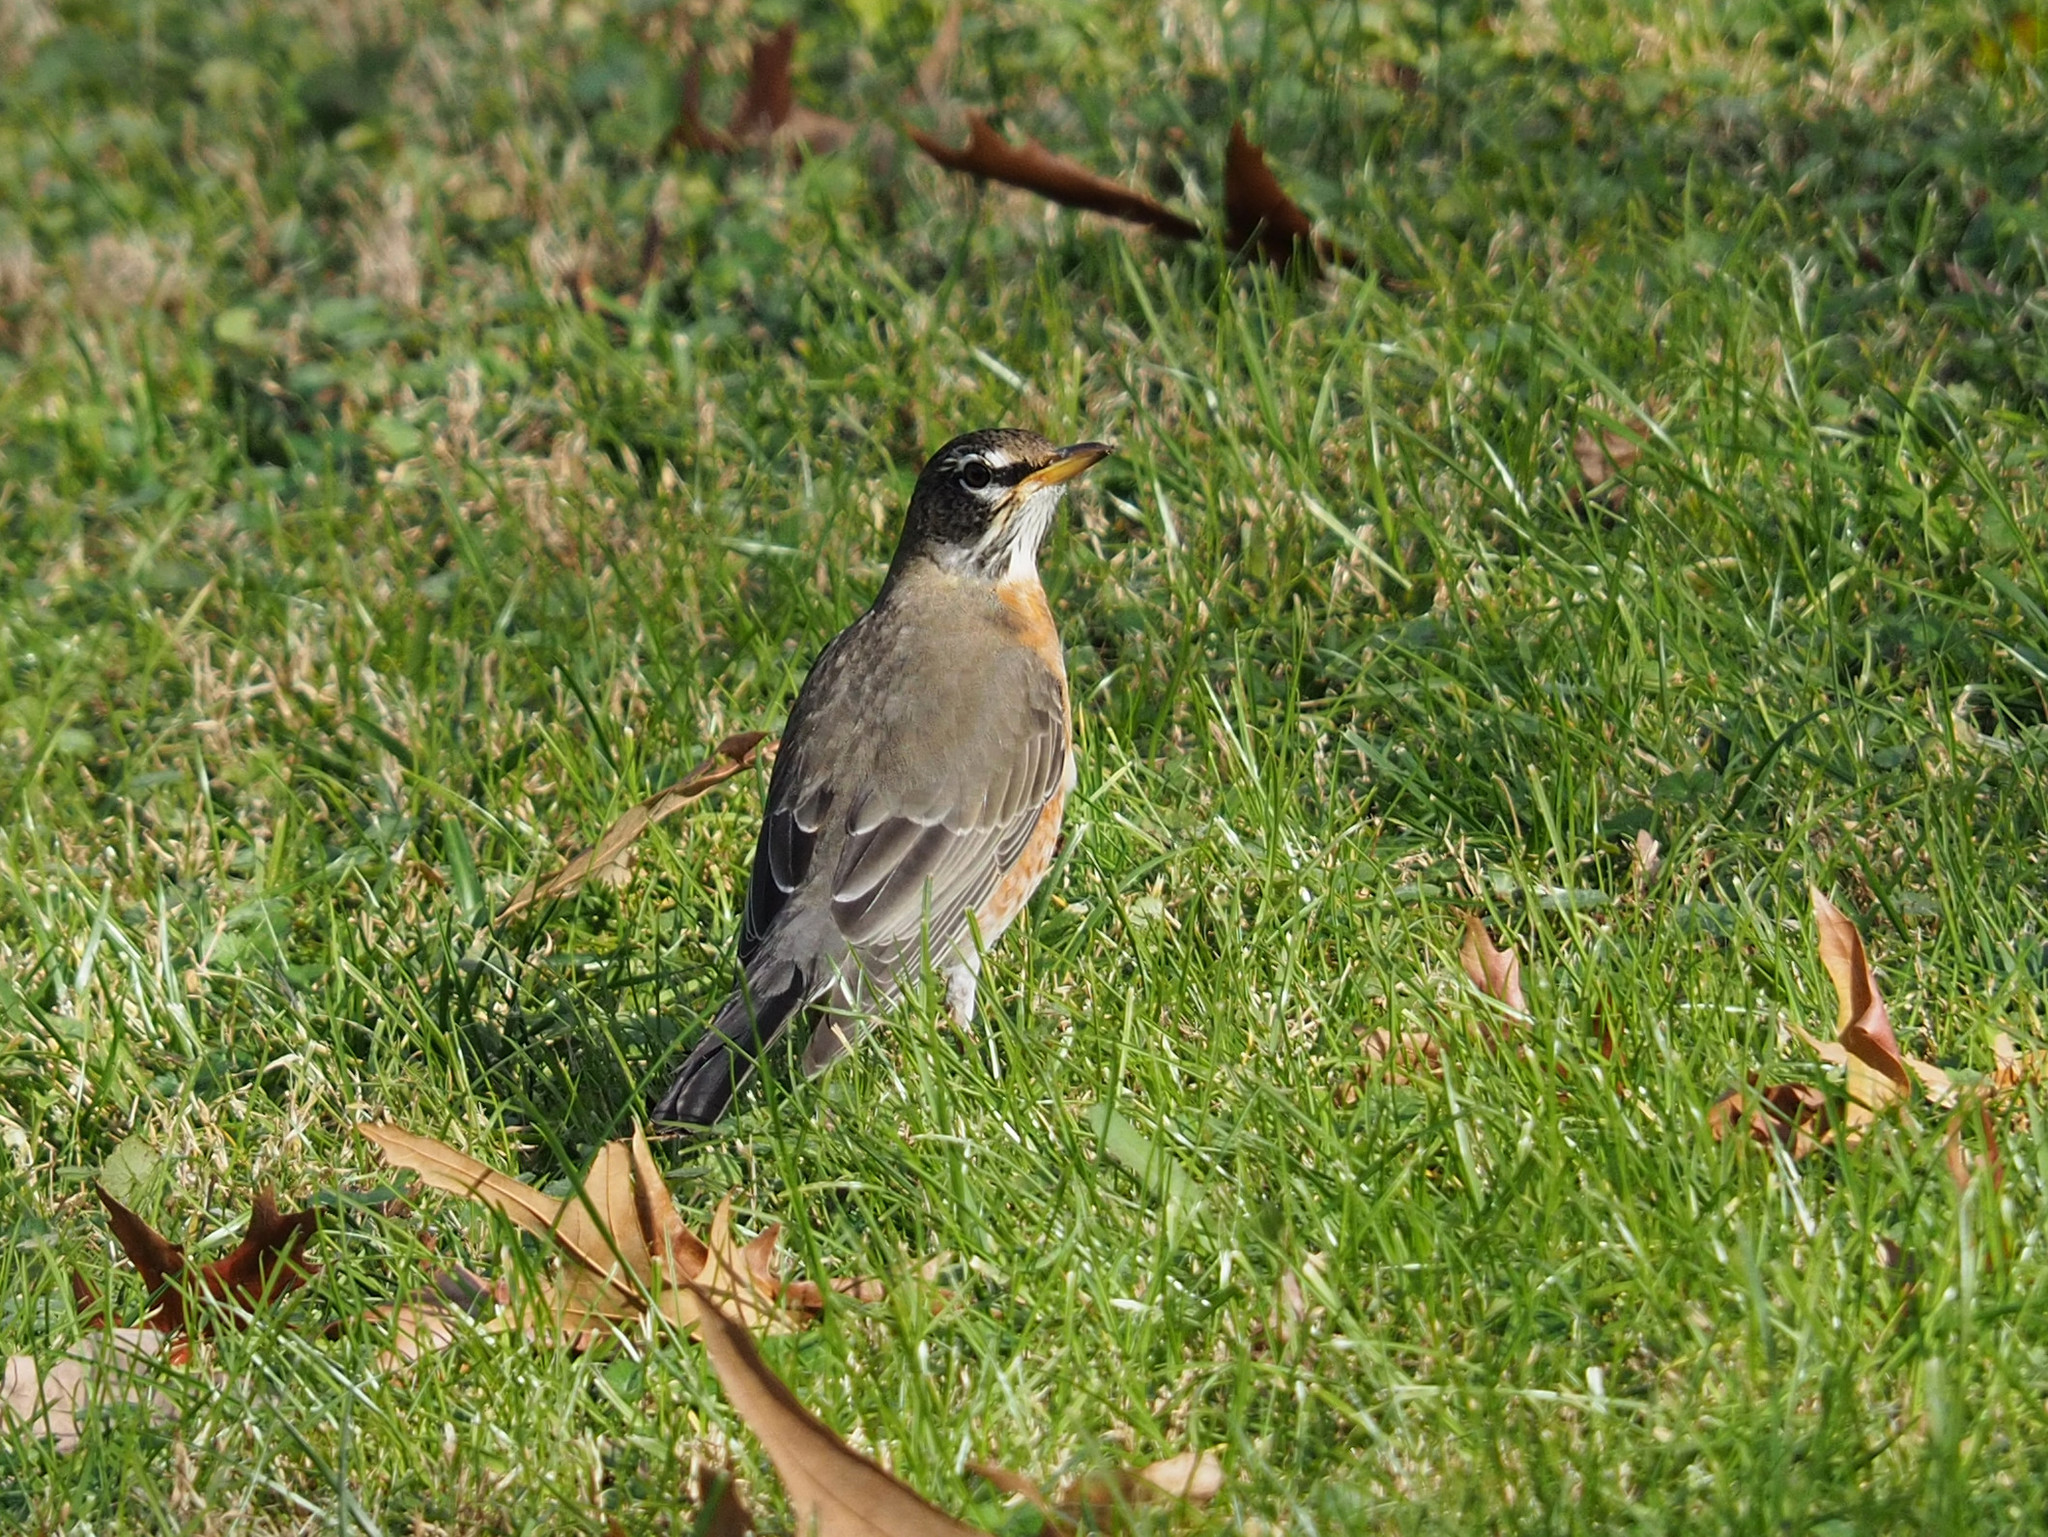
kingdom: Animalia
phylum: Chordata
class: Aves
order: Passeriformes
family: Turdidae
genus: Turdus
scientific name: Turdus migratorius
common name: American robin
